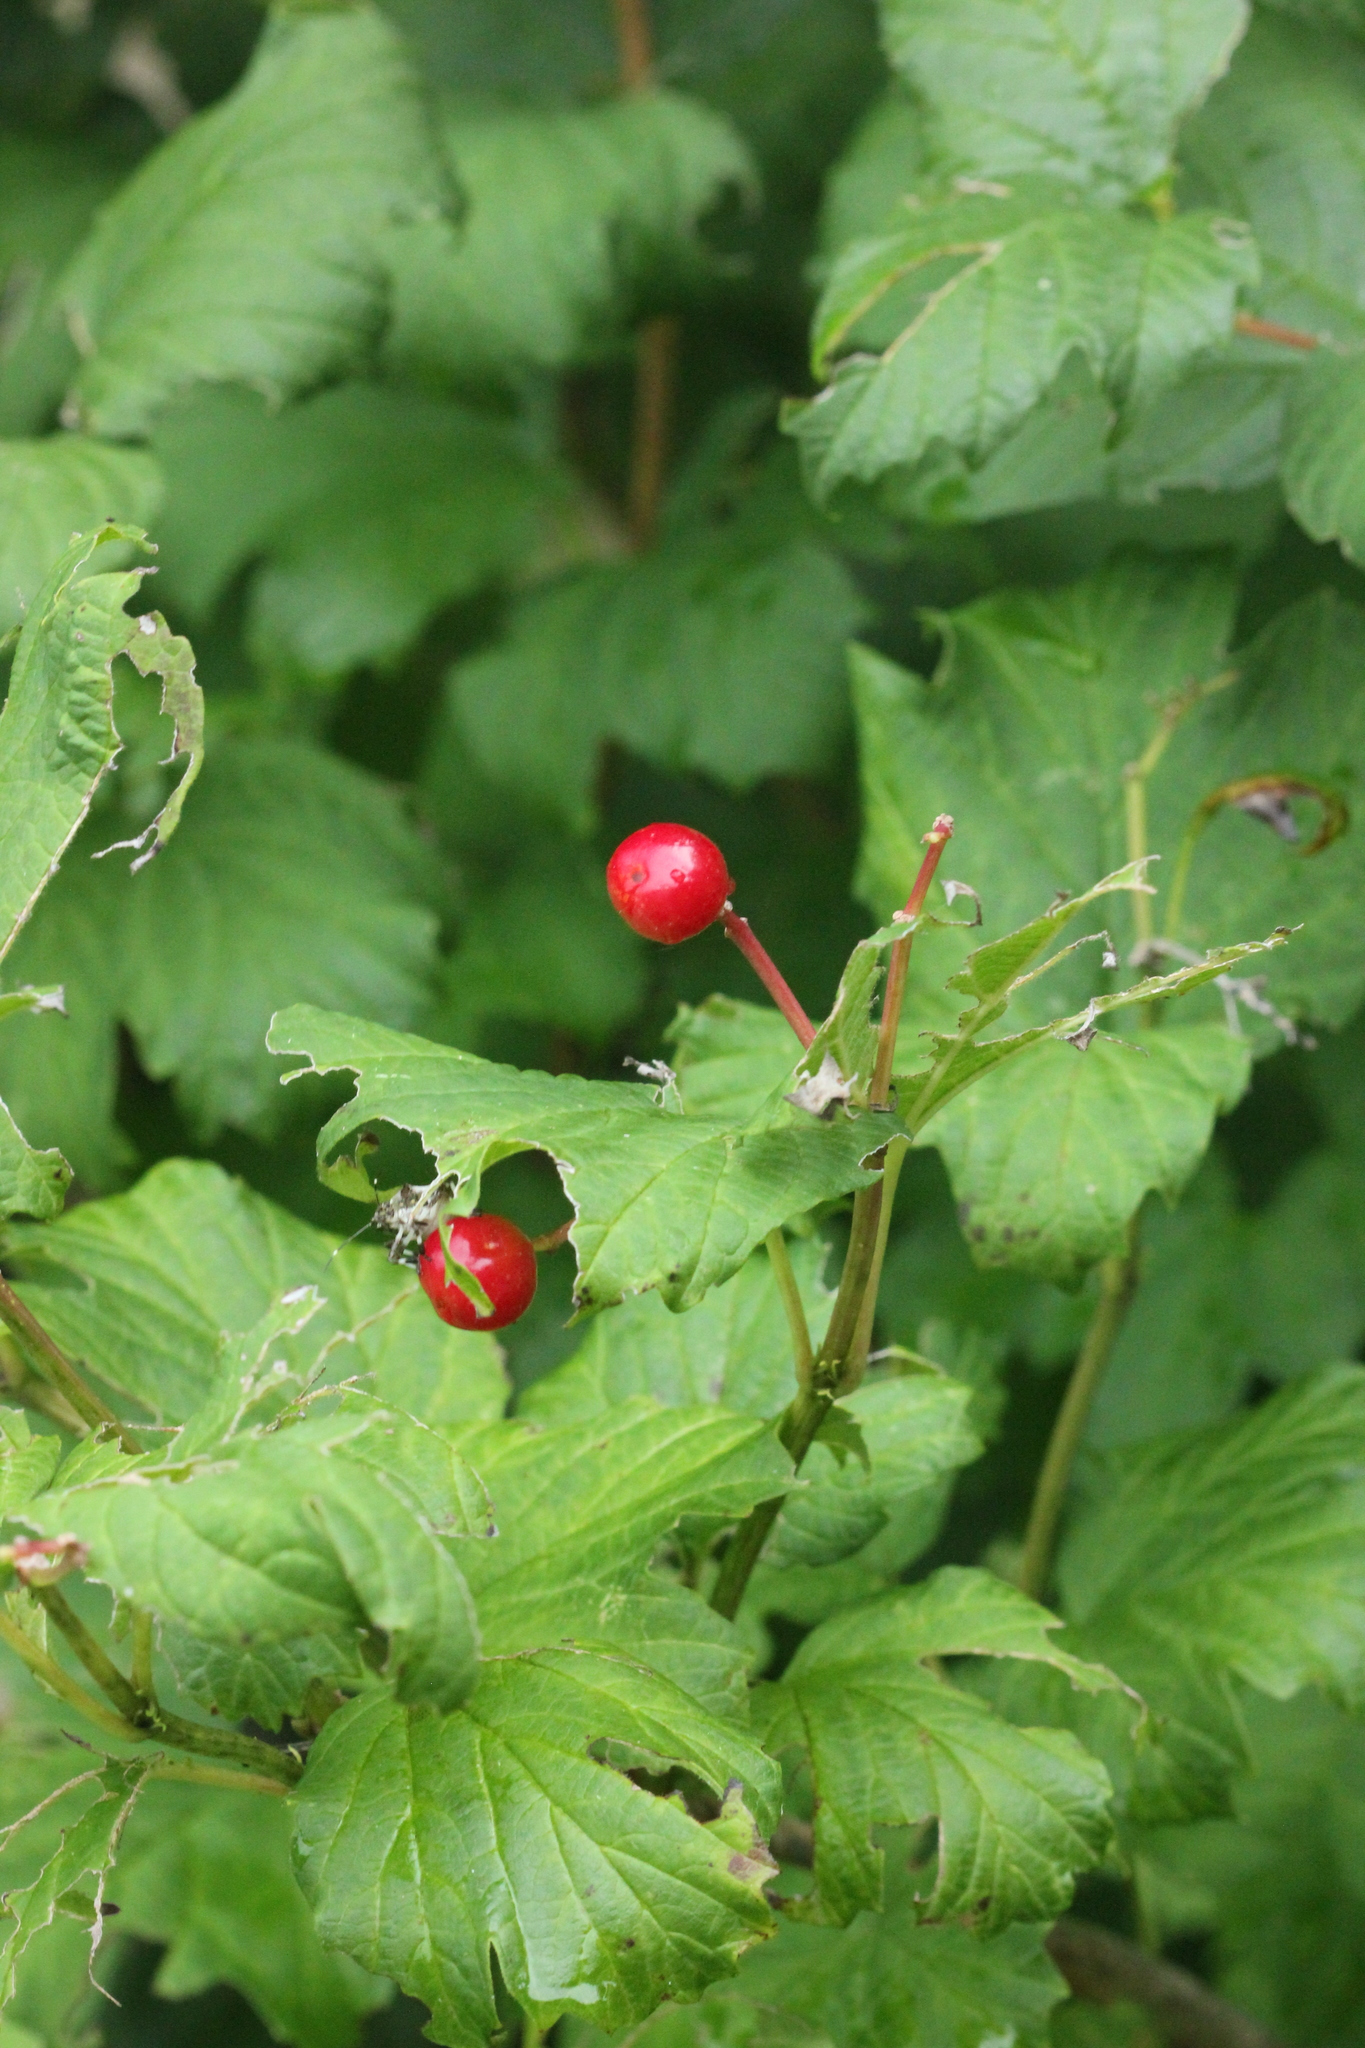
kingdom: Plantae
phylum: Tracheophyta
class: Magnoliopsida
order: Dipsacales
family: Viburnaceae
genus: Viburnum
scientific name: Viburnum opulus
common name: Guelder-rose
